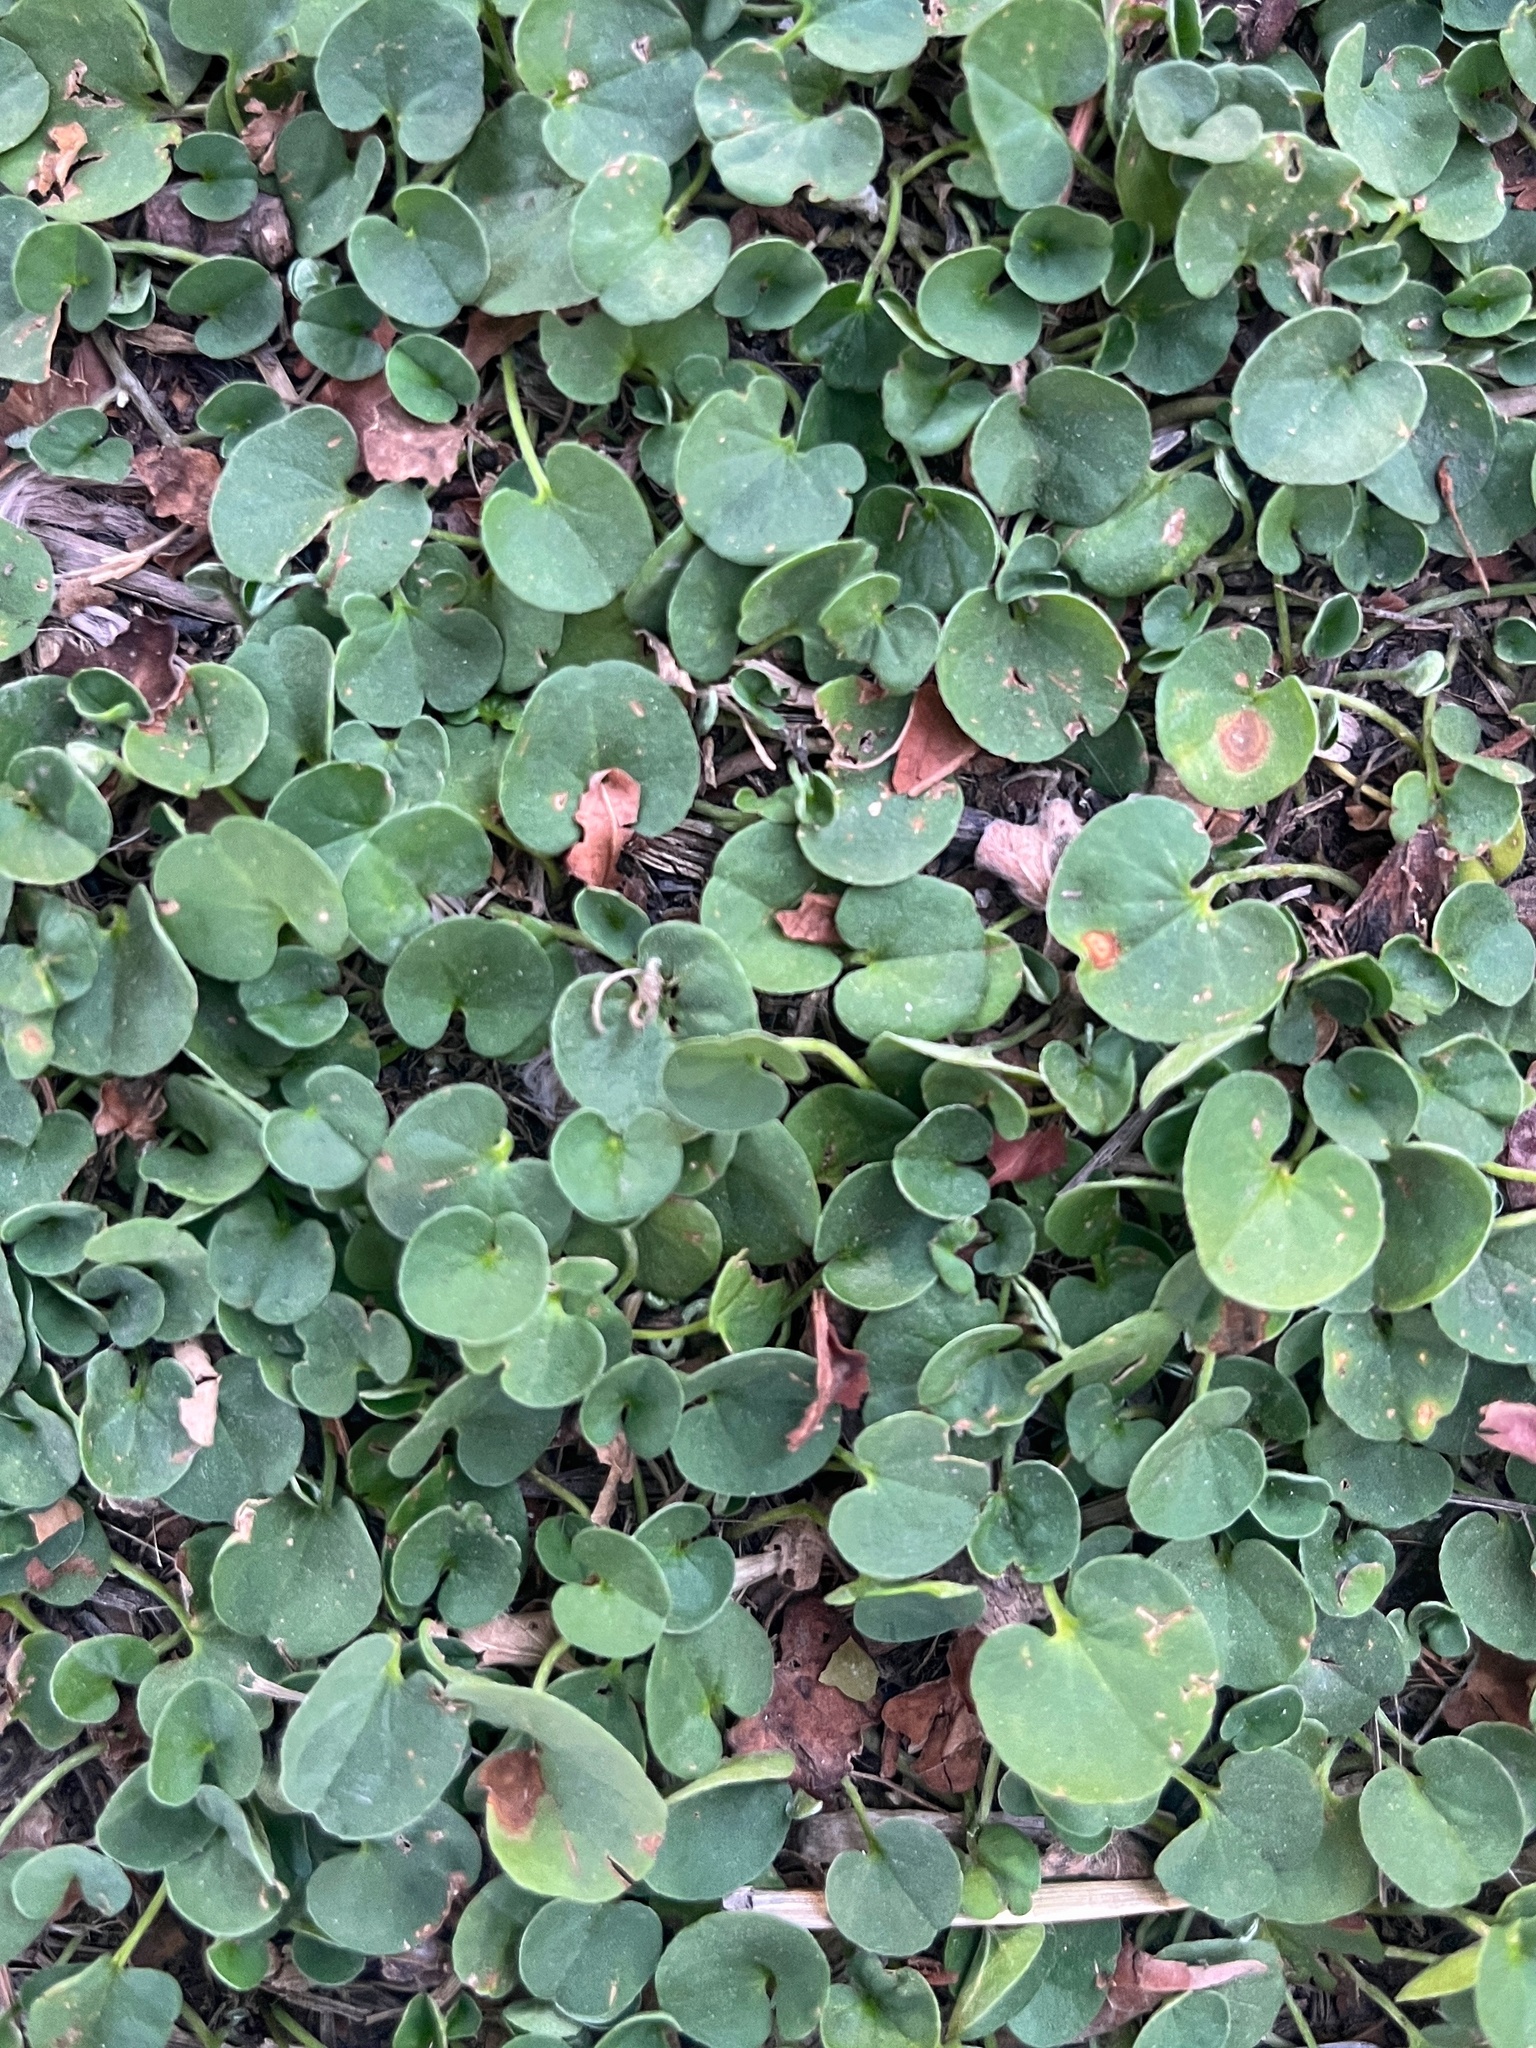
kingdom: Plantae
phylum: Tracheophyta
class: Magnoliopsida
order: Solanales
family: Convolvulaceae
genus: Dichondra
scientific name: Dichondra sericea
